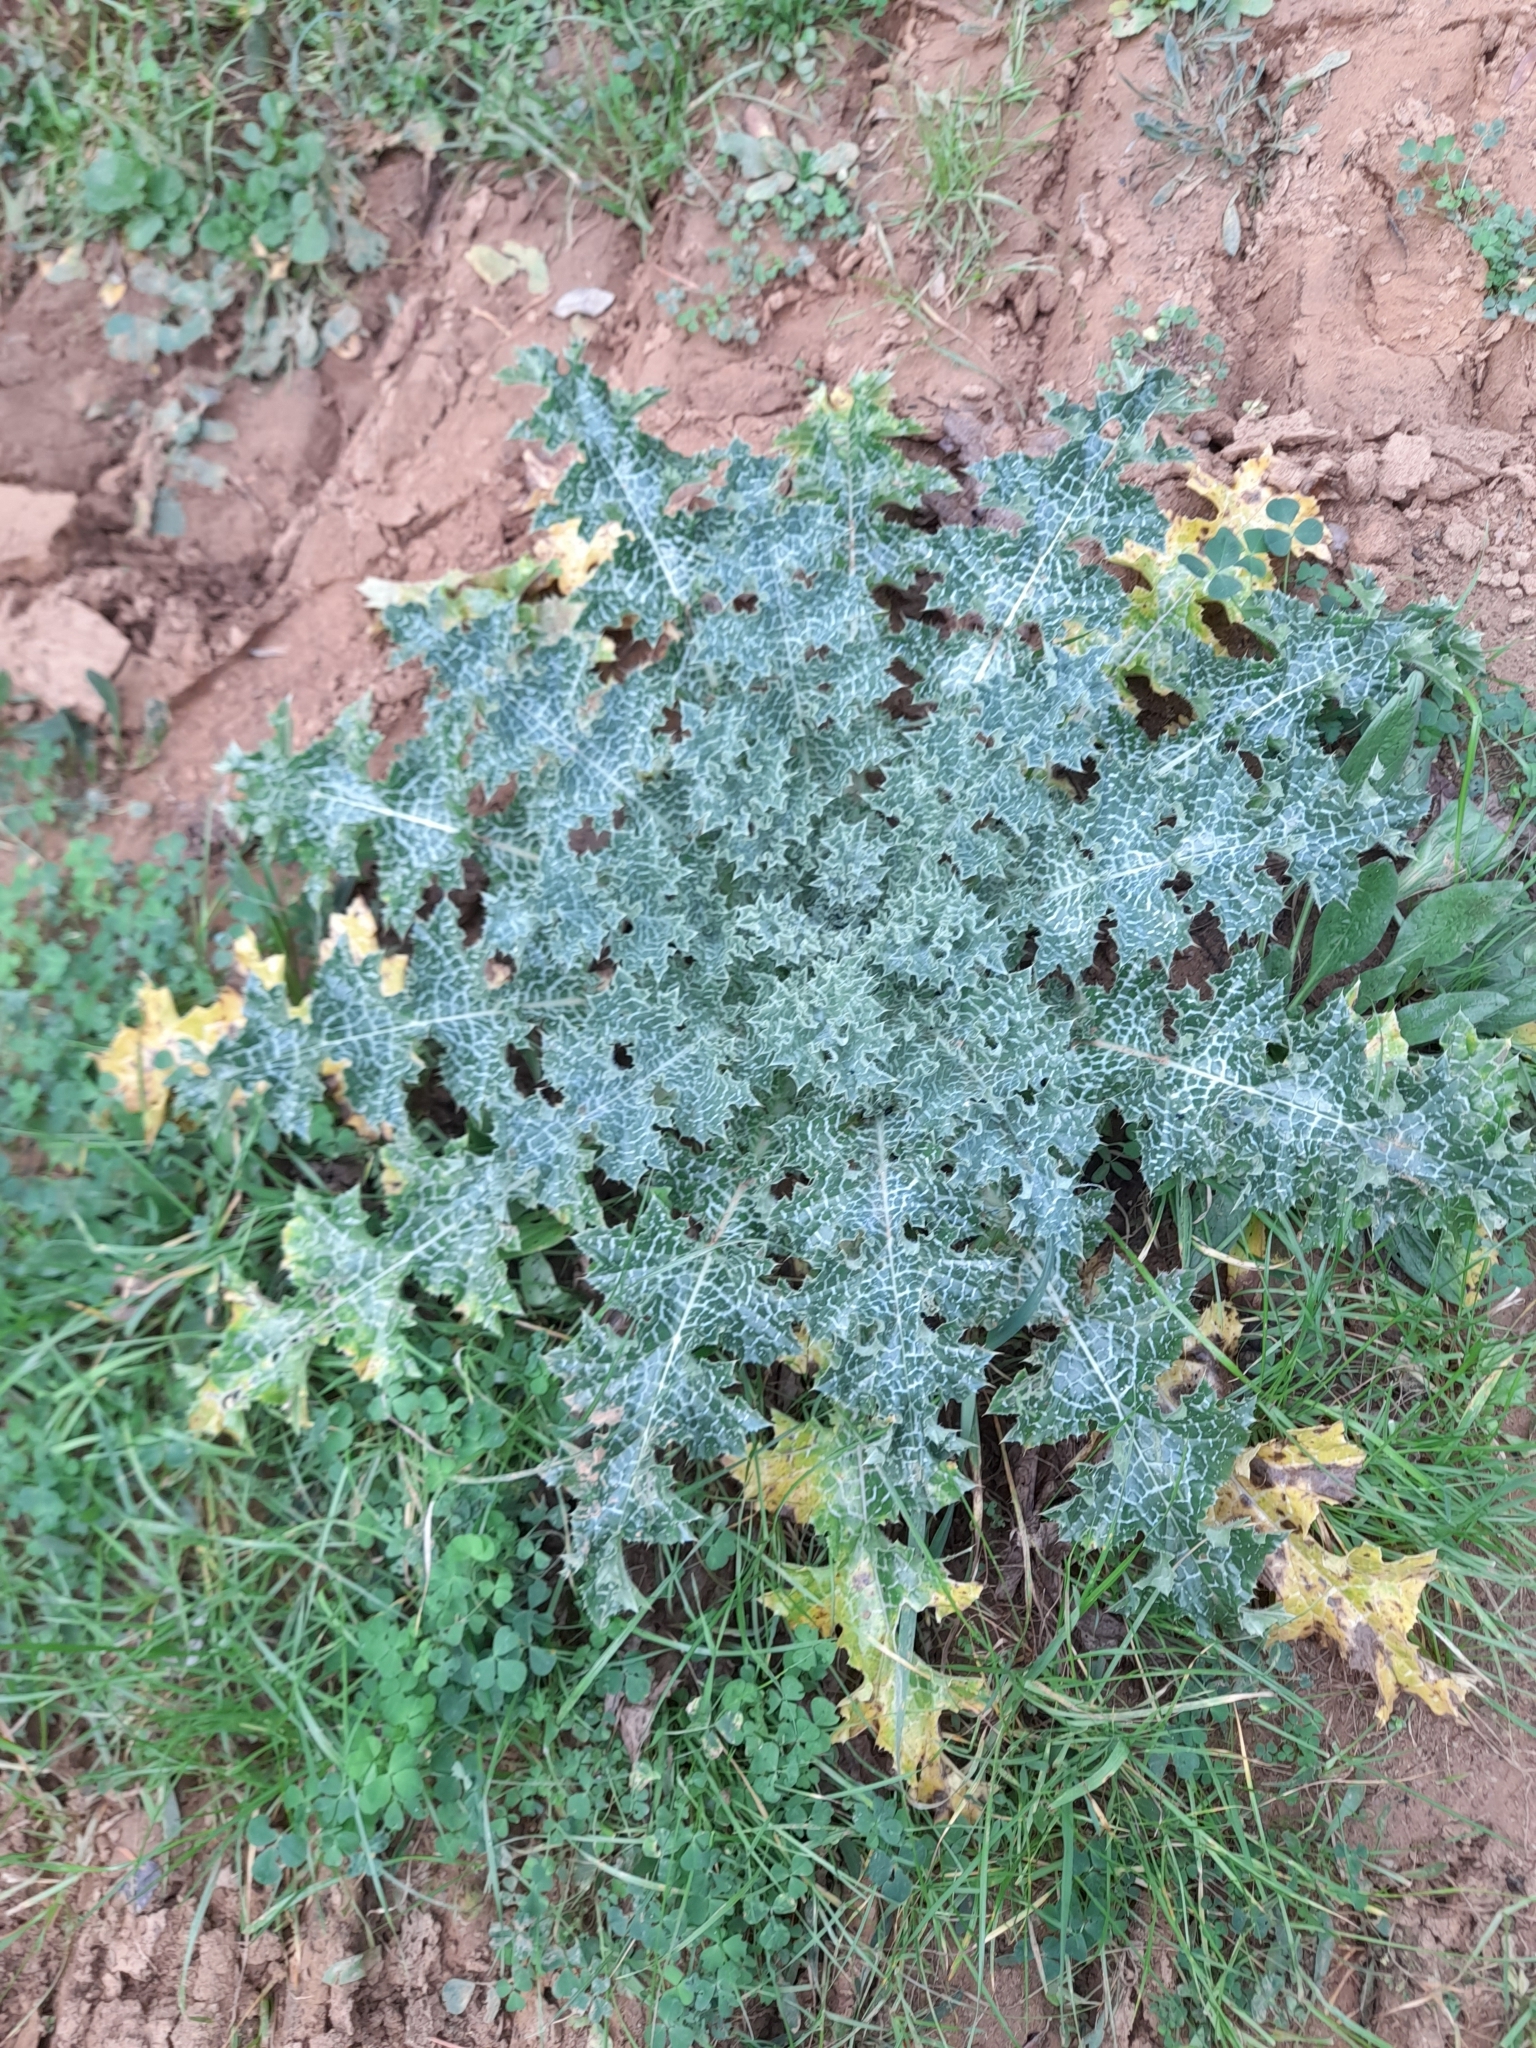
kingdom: Plantae
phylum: Tracheophyta
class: Magnoliopsida
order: Asterales
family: Asteraceae
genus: Silybum
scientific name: Silybum marianum
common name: Milk thistle
